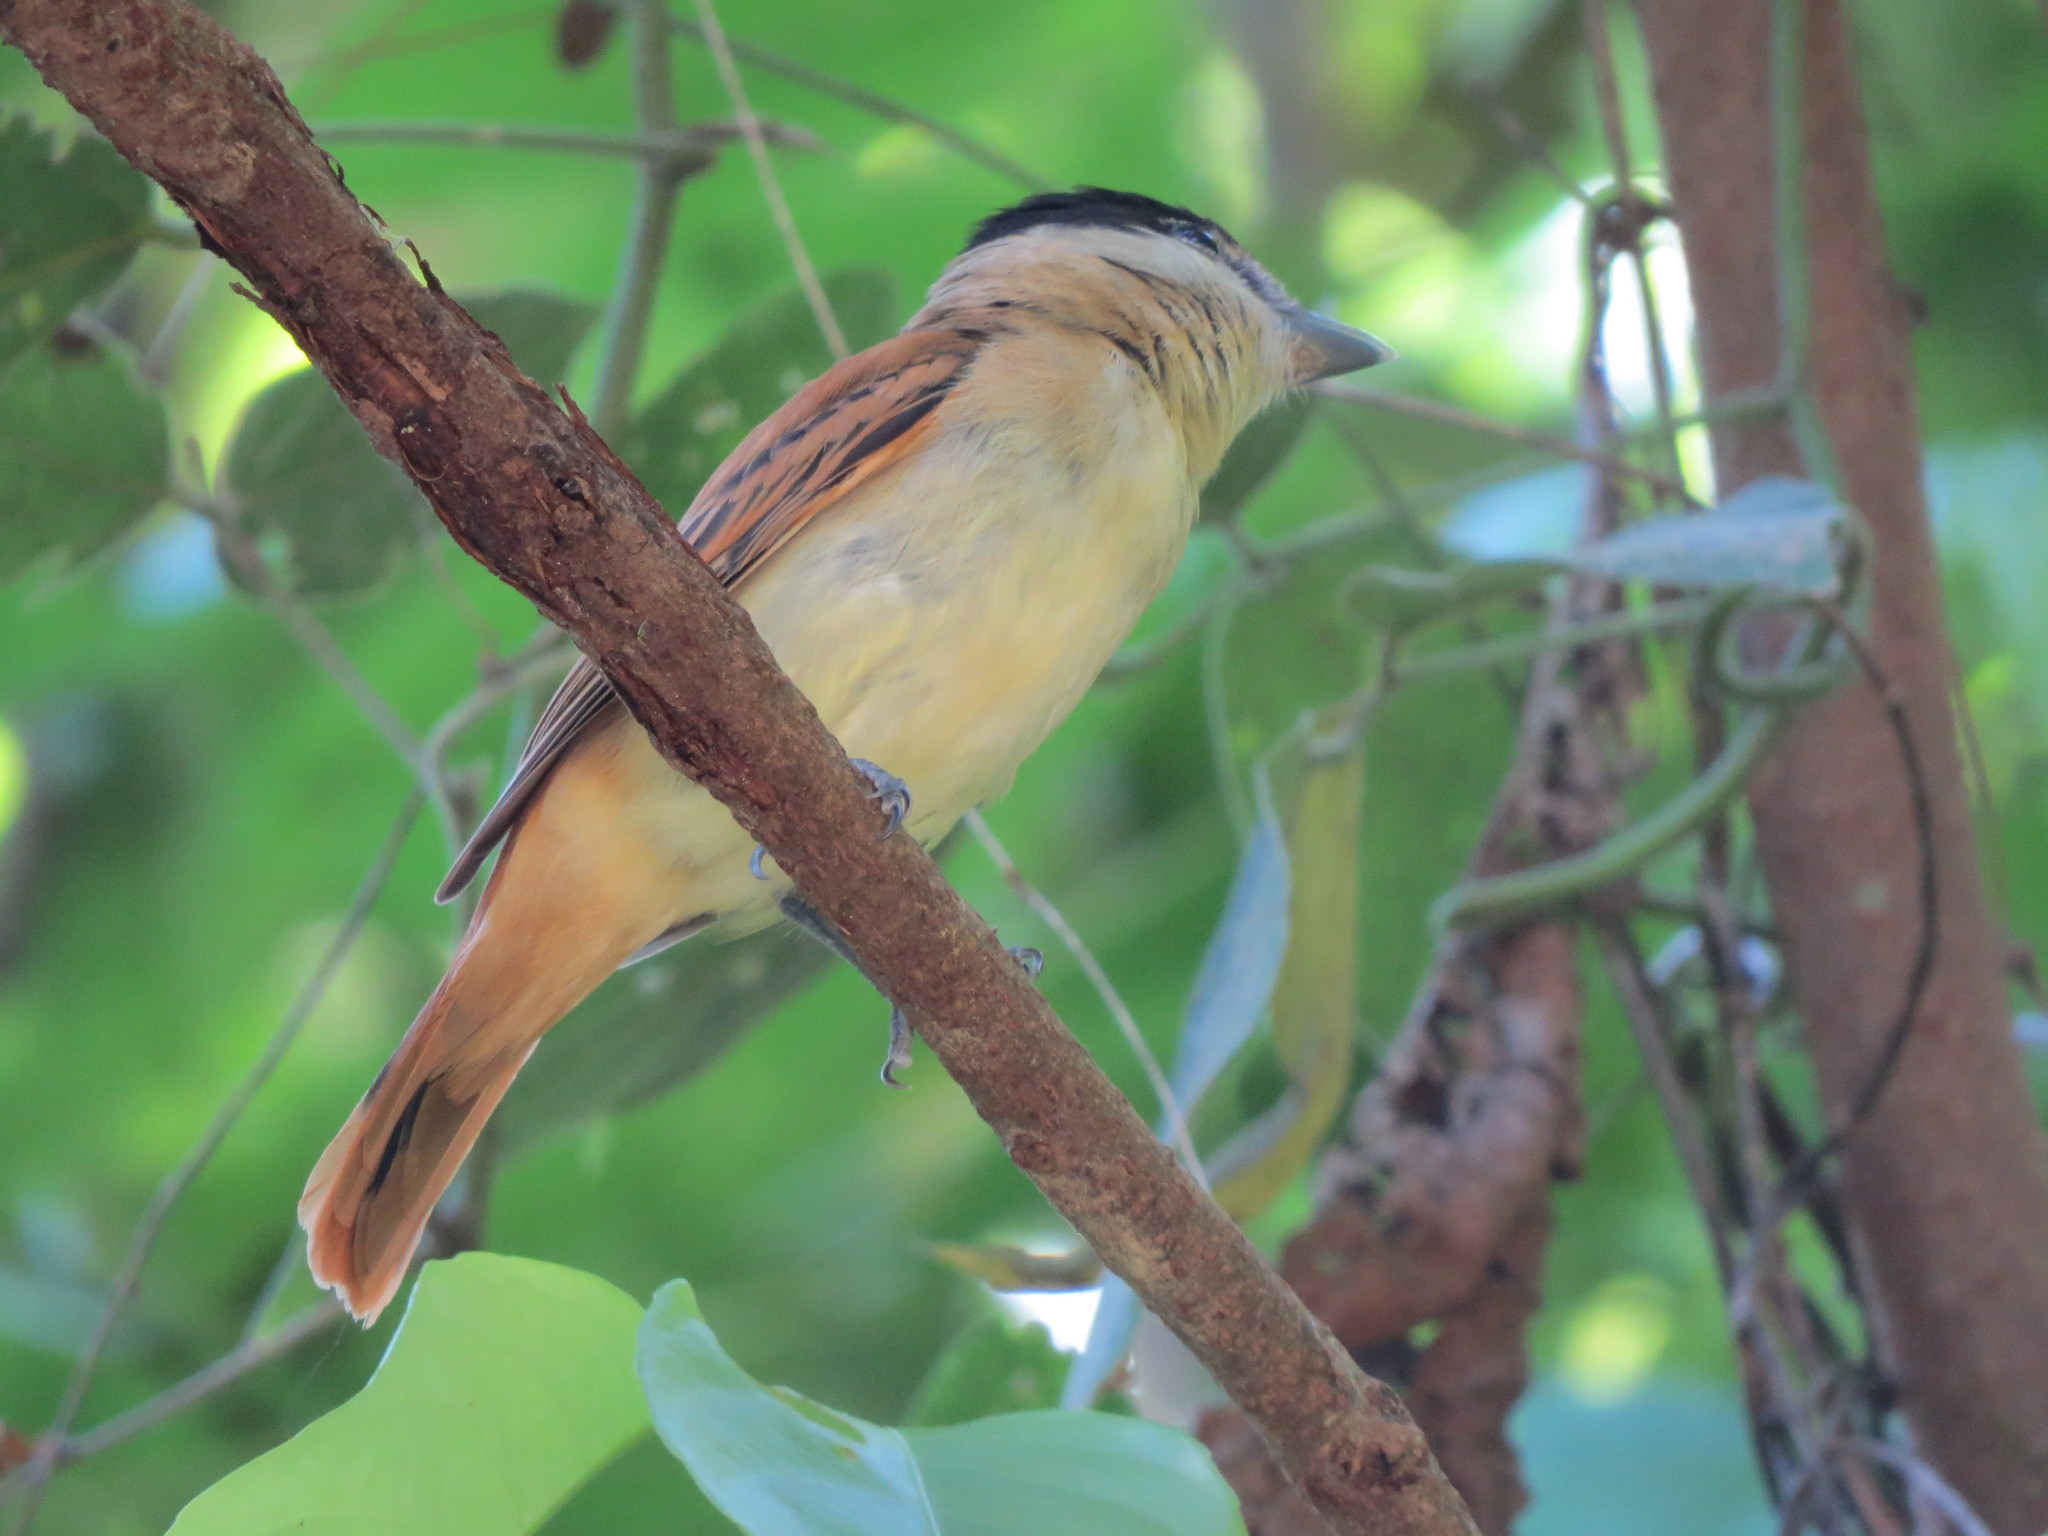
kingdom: Animalia
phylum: Chordata
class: Aves
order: Passeriformes
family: Cotingidae
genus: Pachyramphus
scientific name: Pachyramphus major
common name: Gray-collared becard
